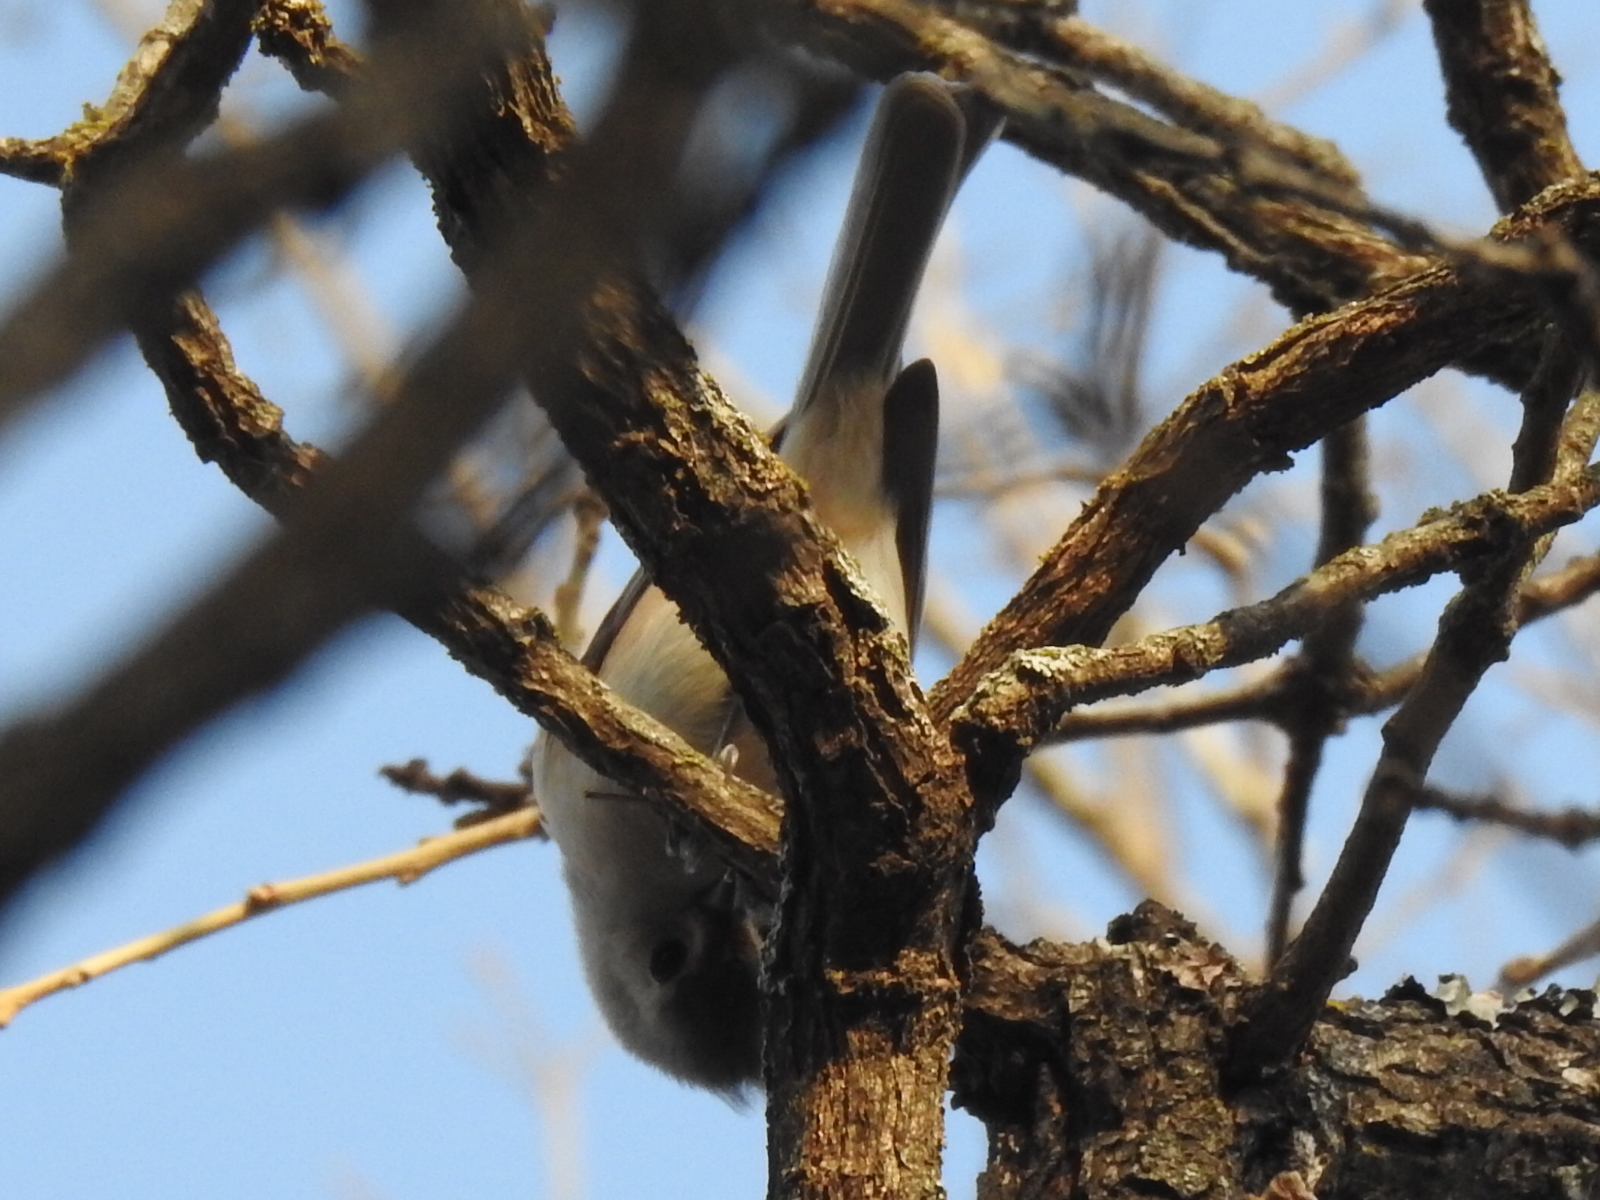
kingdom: Animalia
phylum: Chordata
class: Aves
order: Passeriformes
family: Paridae
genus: Baeolophus
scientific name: Baeolophus
